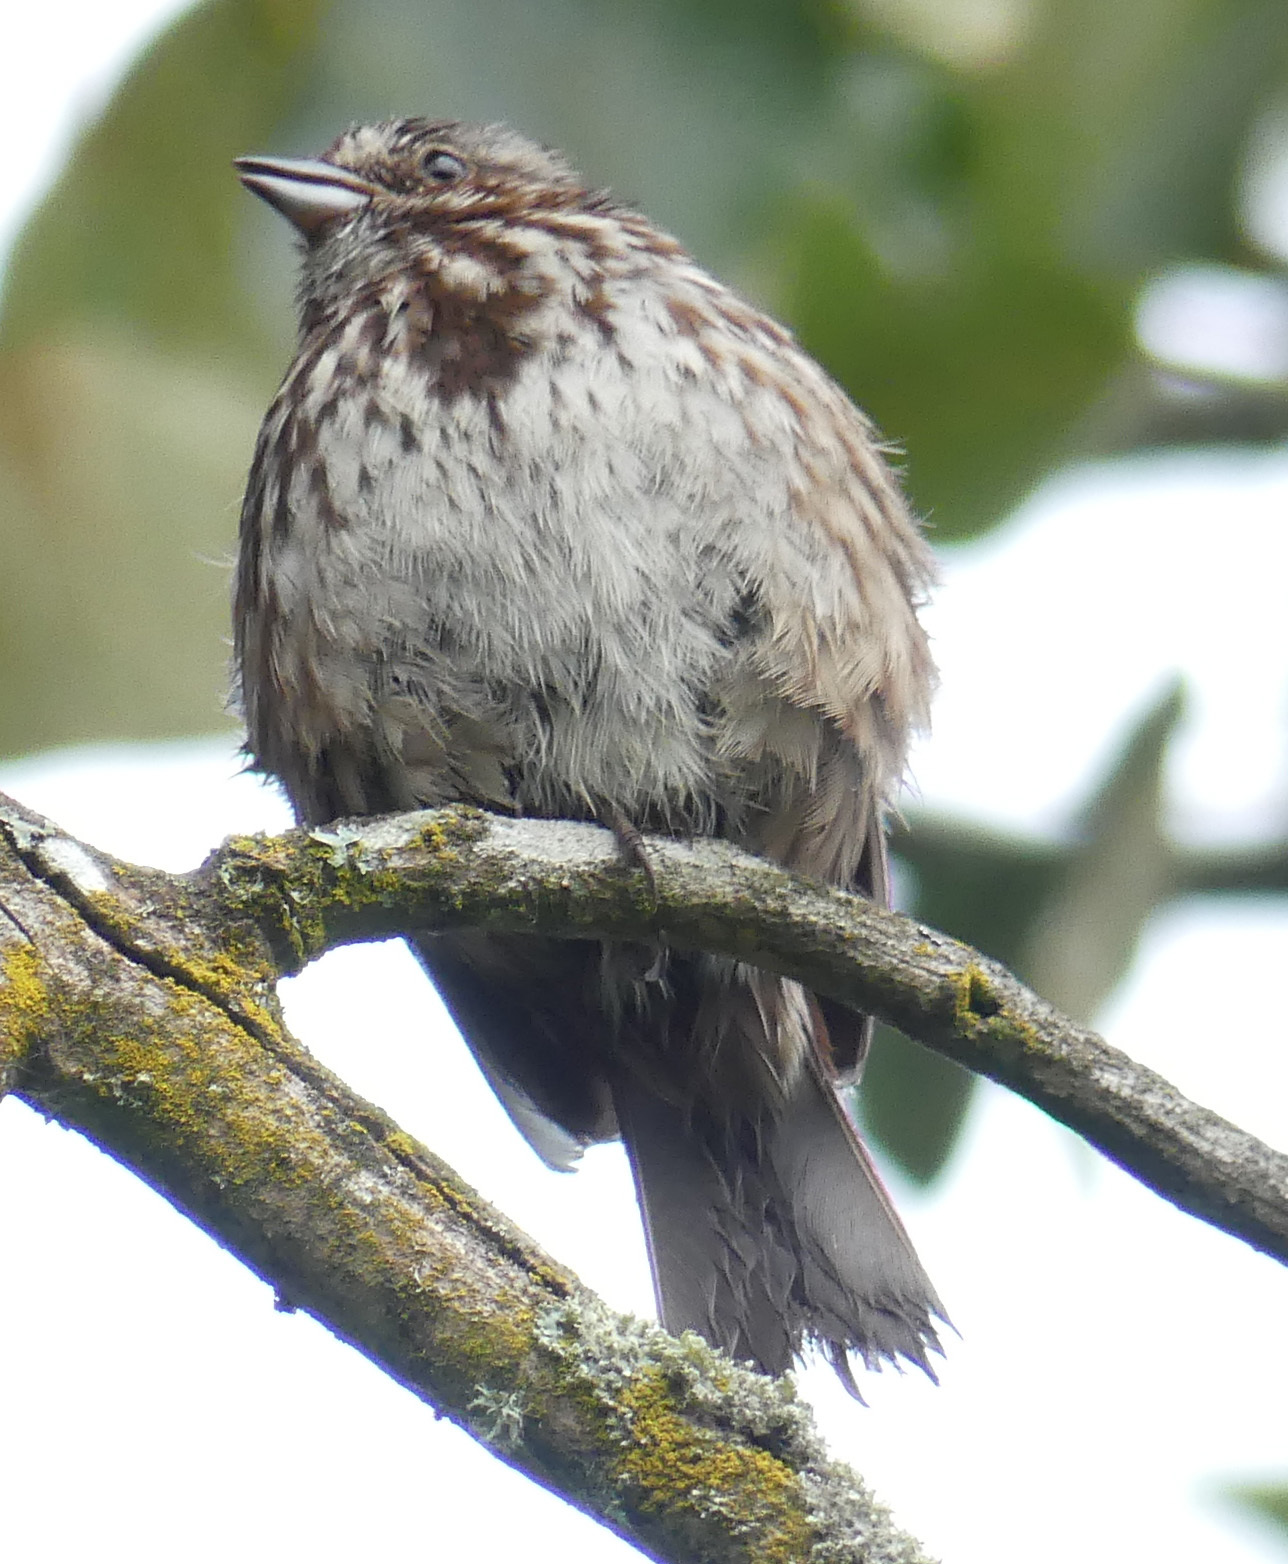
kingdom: Animalia
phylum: Chordata
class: Aves
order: Passeriformes
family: Passerellidae
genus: Melospiza
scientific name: Melospiza melodia
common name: Song sparrow
